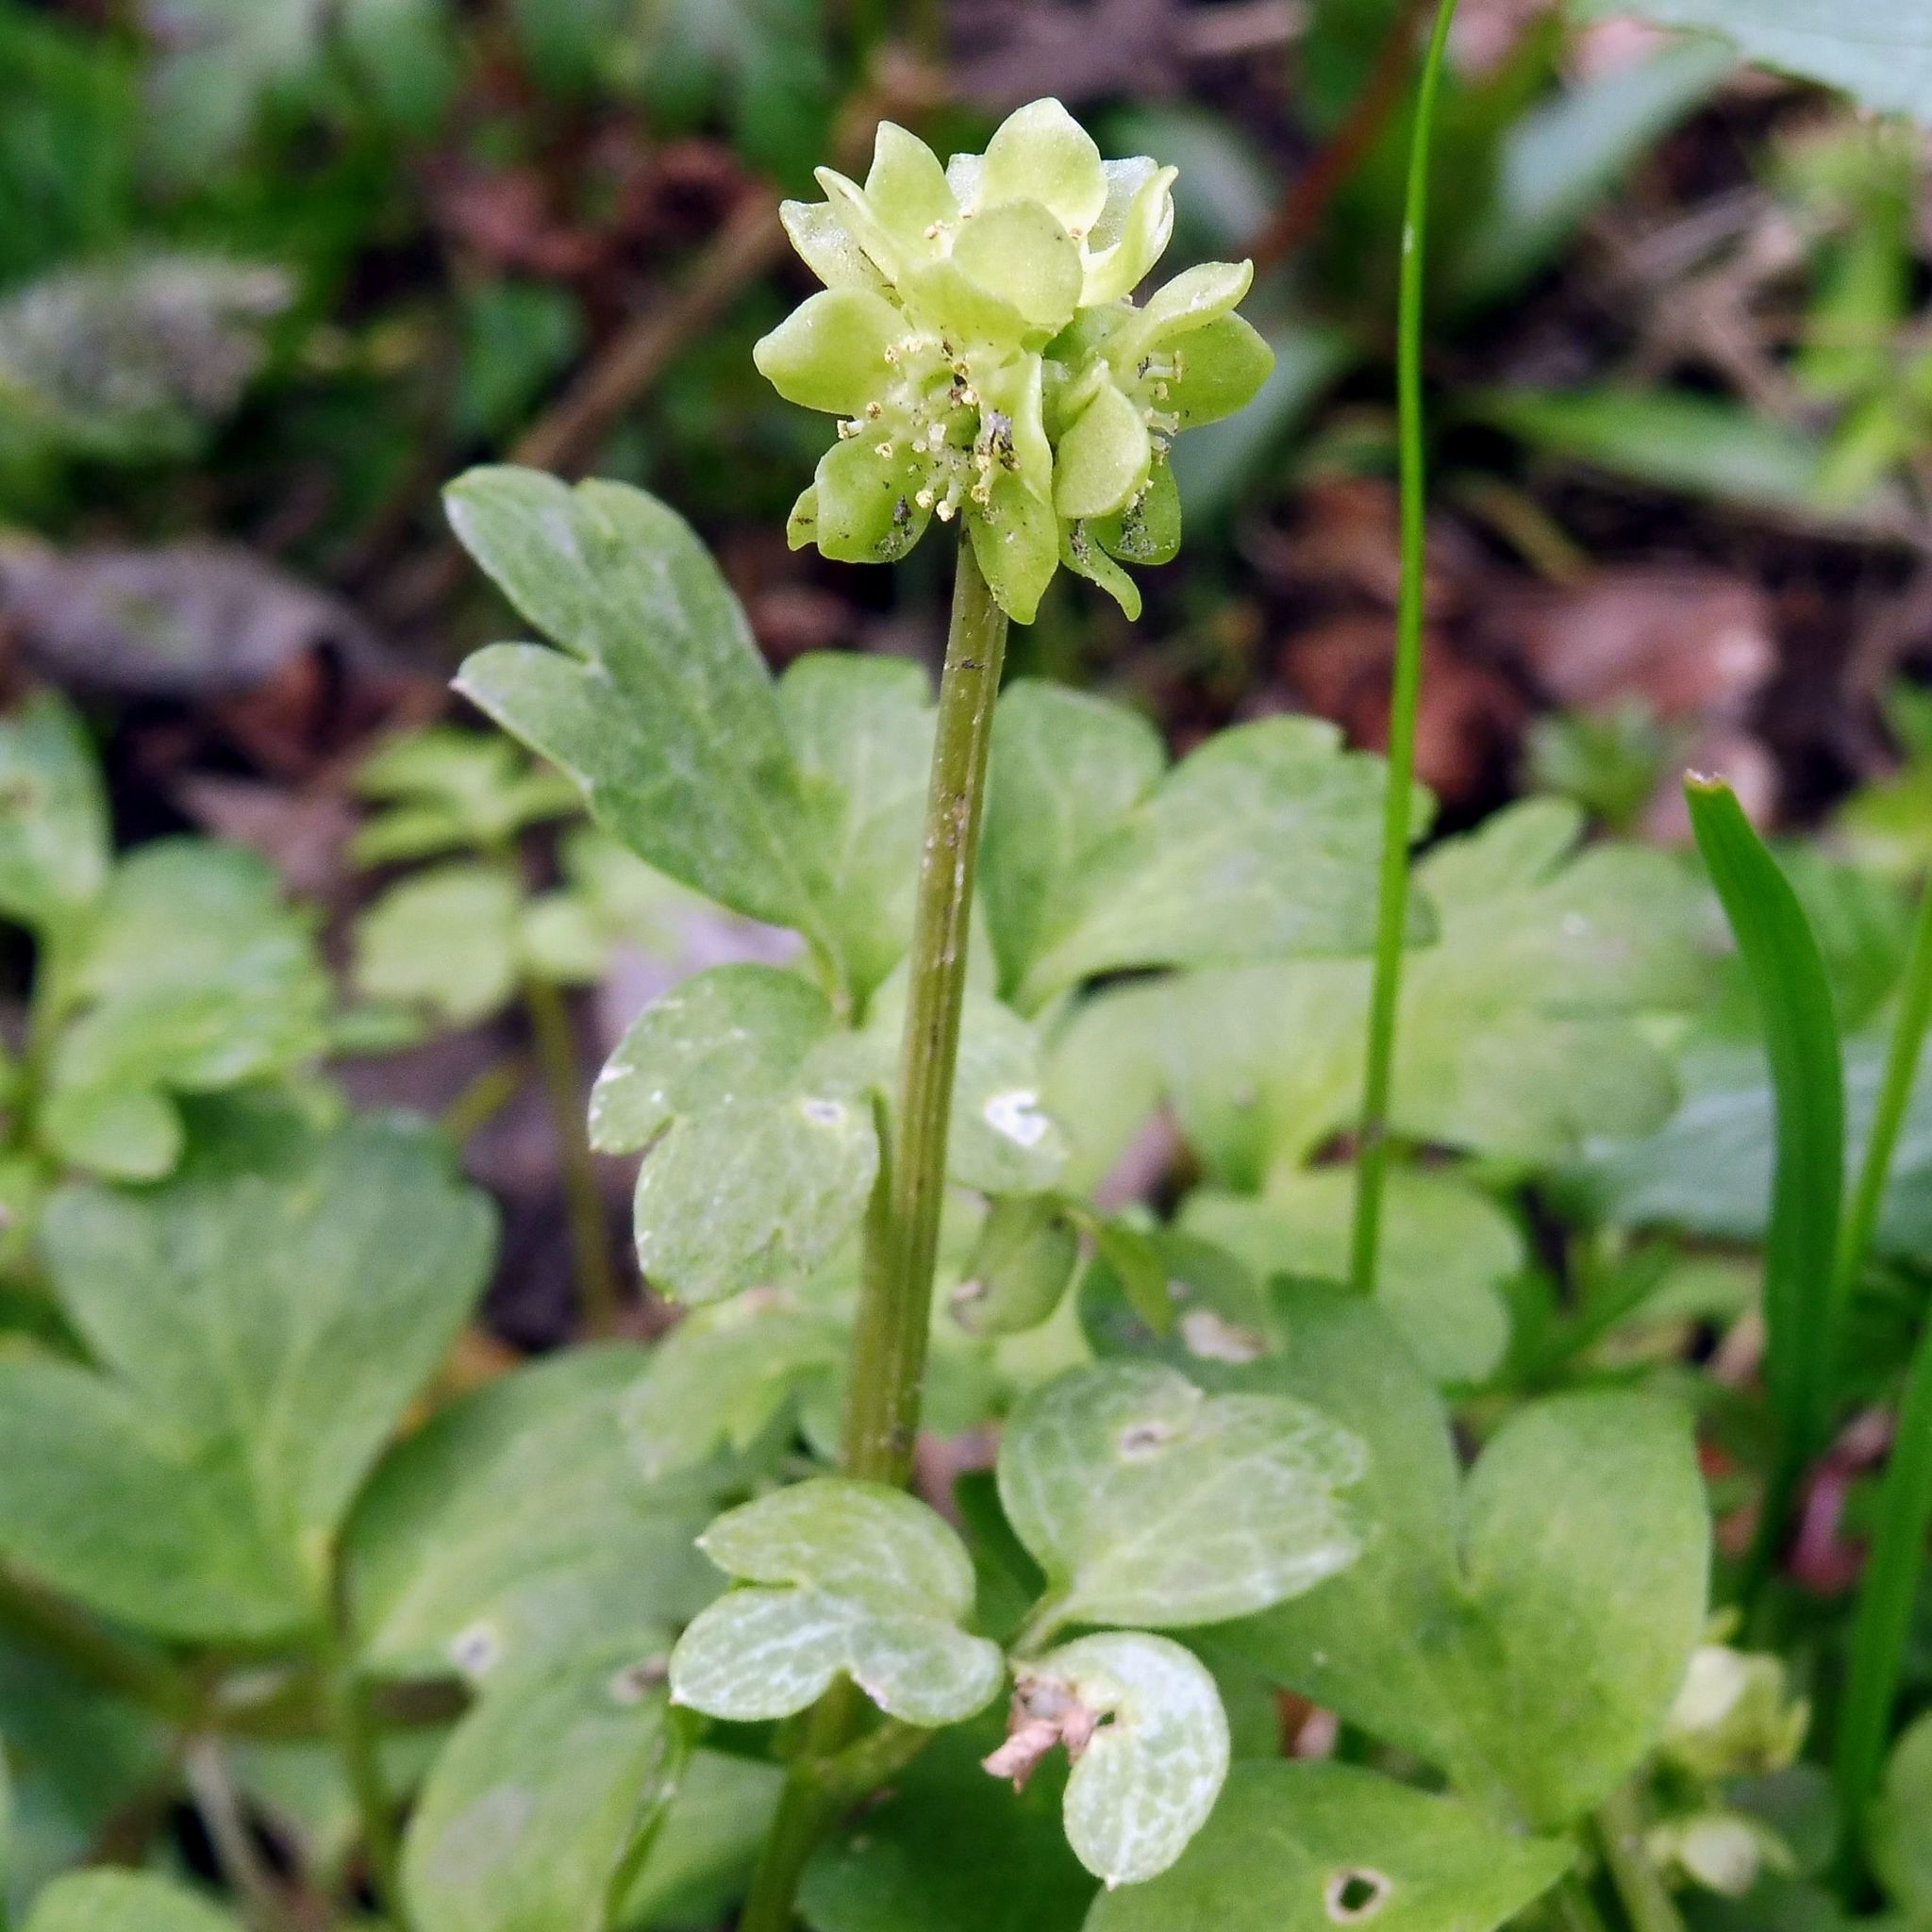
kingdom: Plantae
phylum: Tracheophyta
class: Magnoliopsida
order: Dipsacales
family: Viburnaceae
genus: Adoxa
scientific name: Adoxa moschatellina
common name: Moschatel
